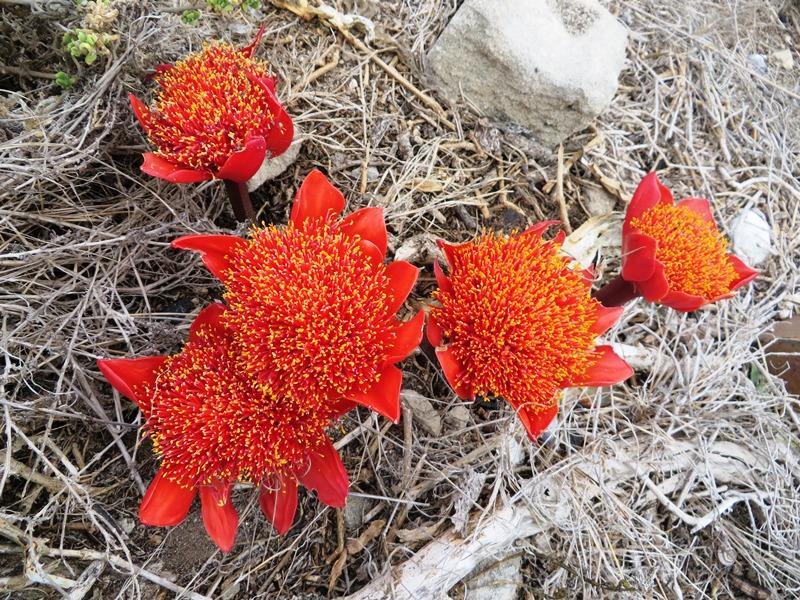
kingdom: Plantae
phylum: Tracheophyta
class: Liliopsida
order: Asparagales
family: Amaryllidaceae
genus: Haemanthus
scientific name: Haemanthus coccineus
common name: Cape-tulip
